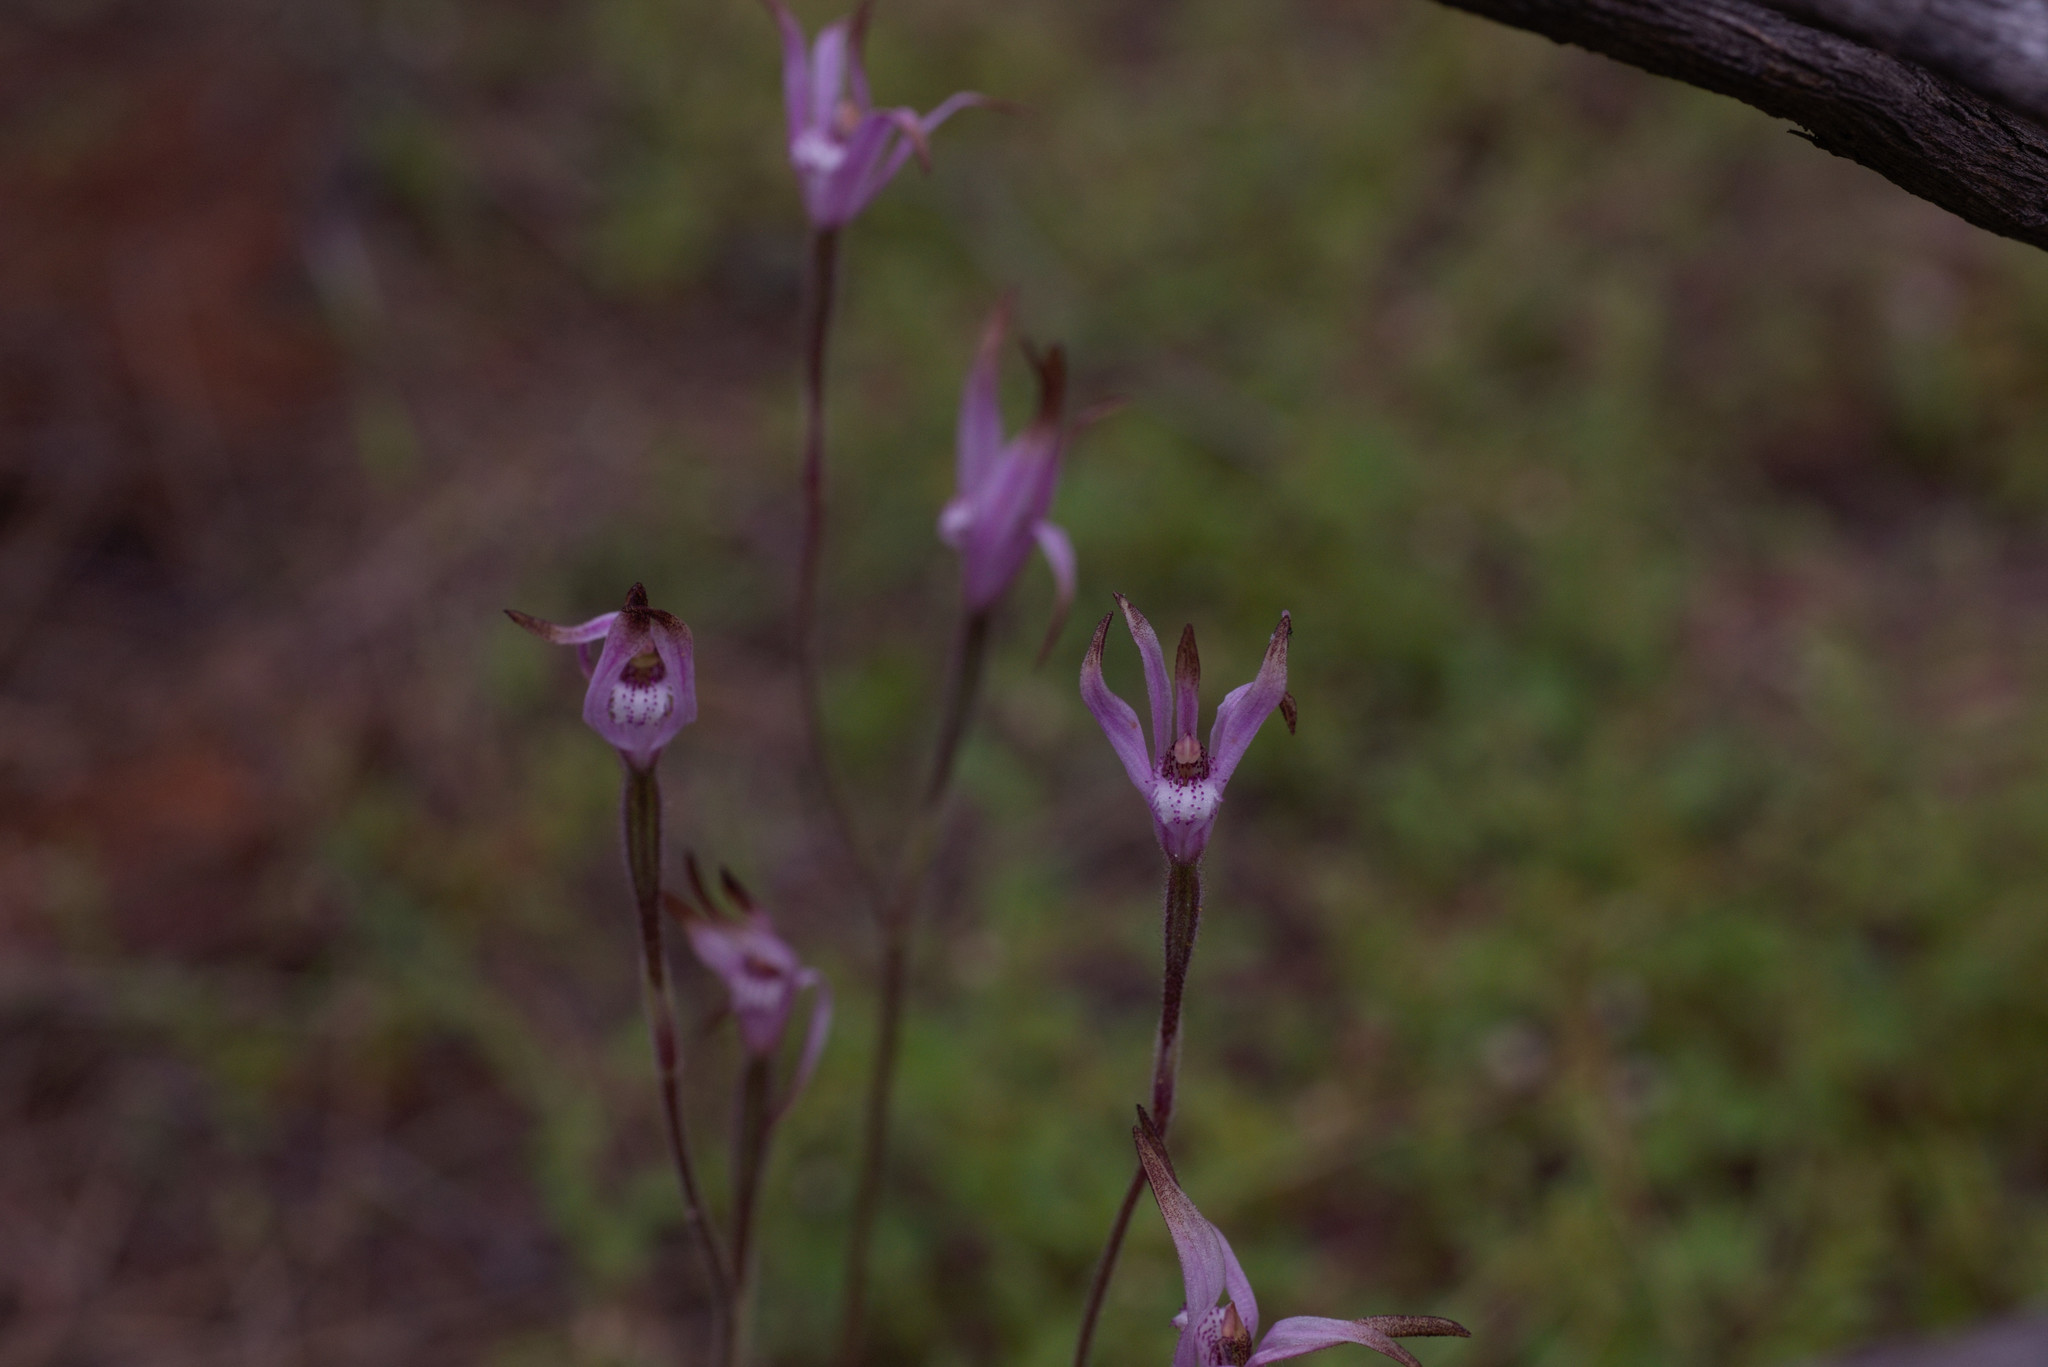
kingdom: Plantae
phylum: Tracheophyta
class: Liliopsida
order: Asparagales
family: Orchidaceae
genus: Caladenia
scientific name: Caladenia hirta
